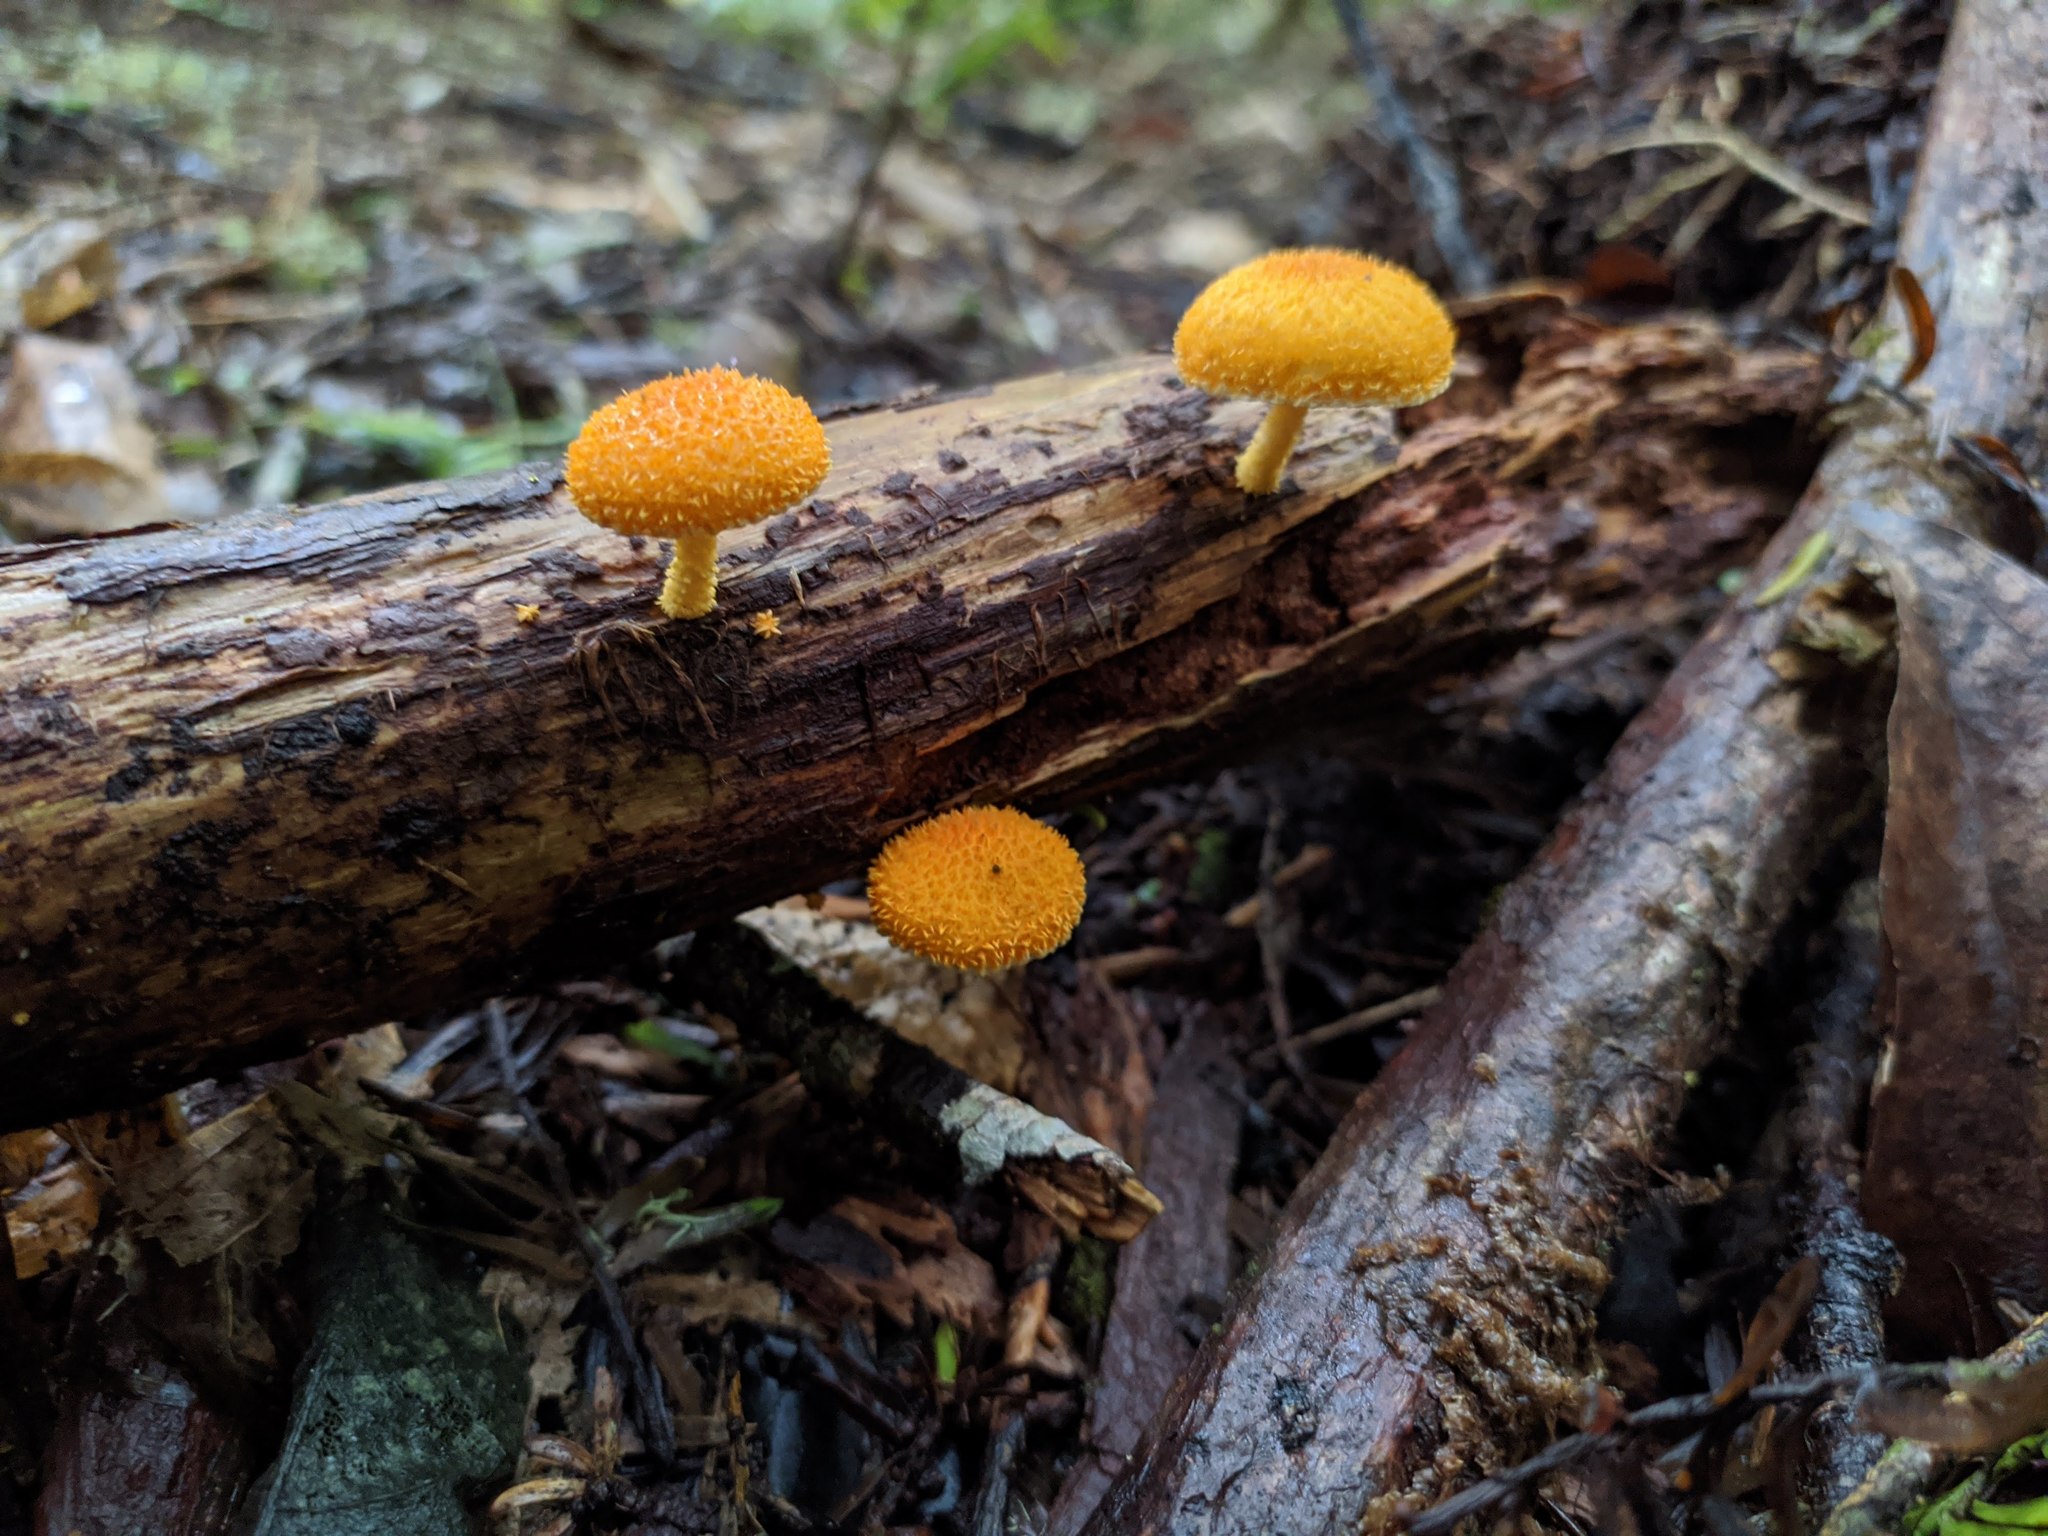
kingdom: Fungi
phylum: Basidiomycota
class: Agaricomycetes
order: Agaricales
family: Physalacriaceae
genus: Cyptotrama
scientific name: Cyptotrama asprata
